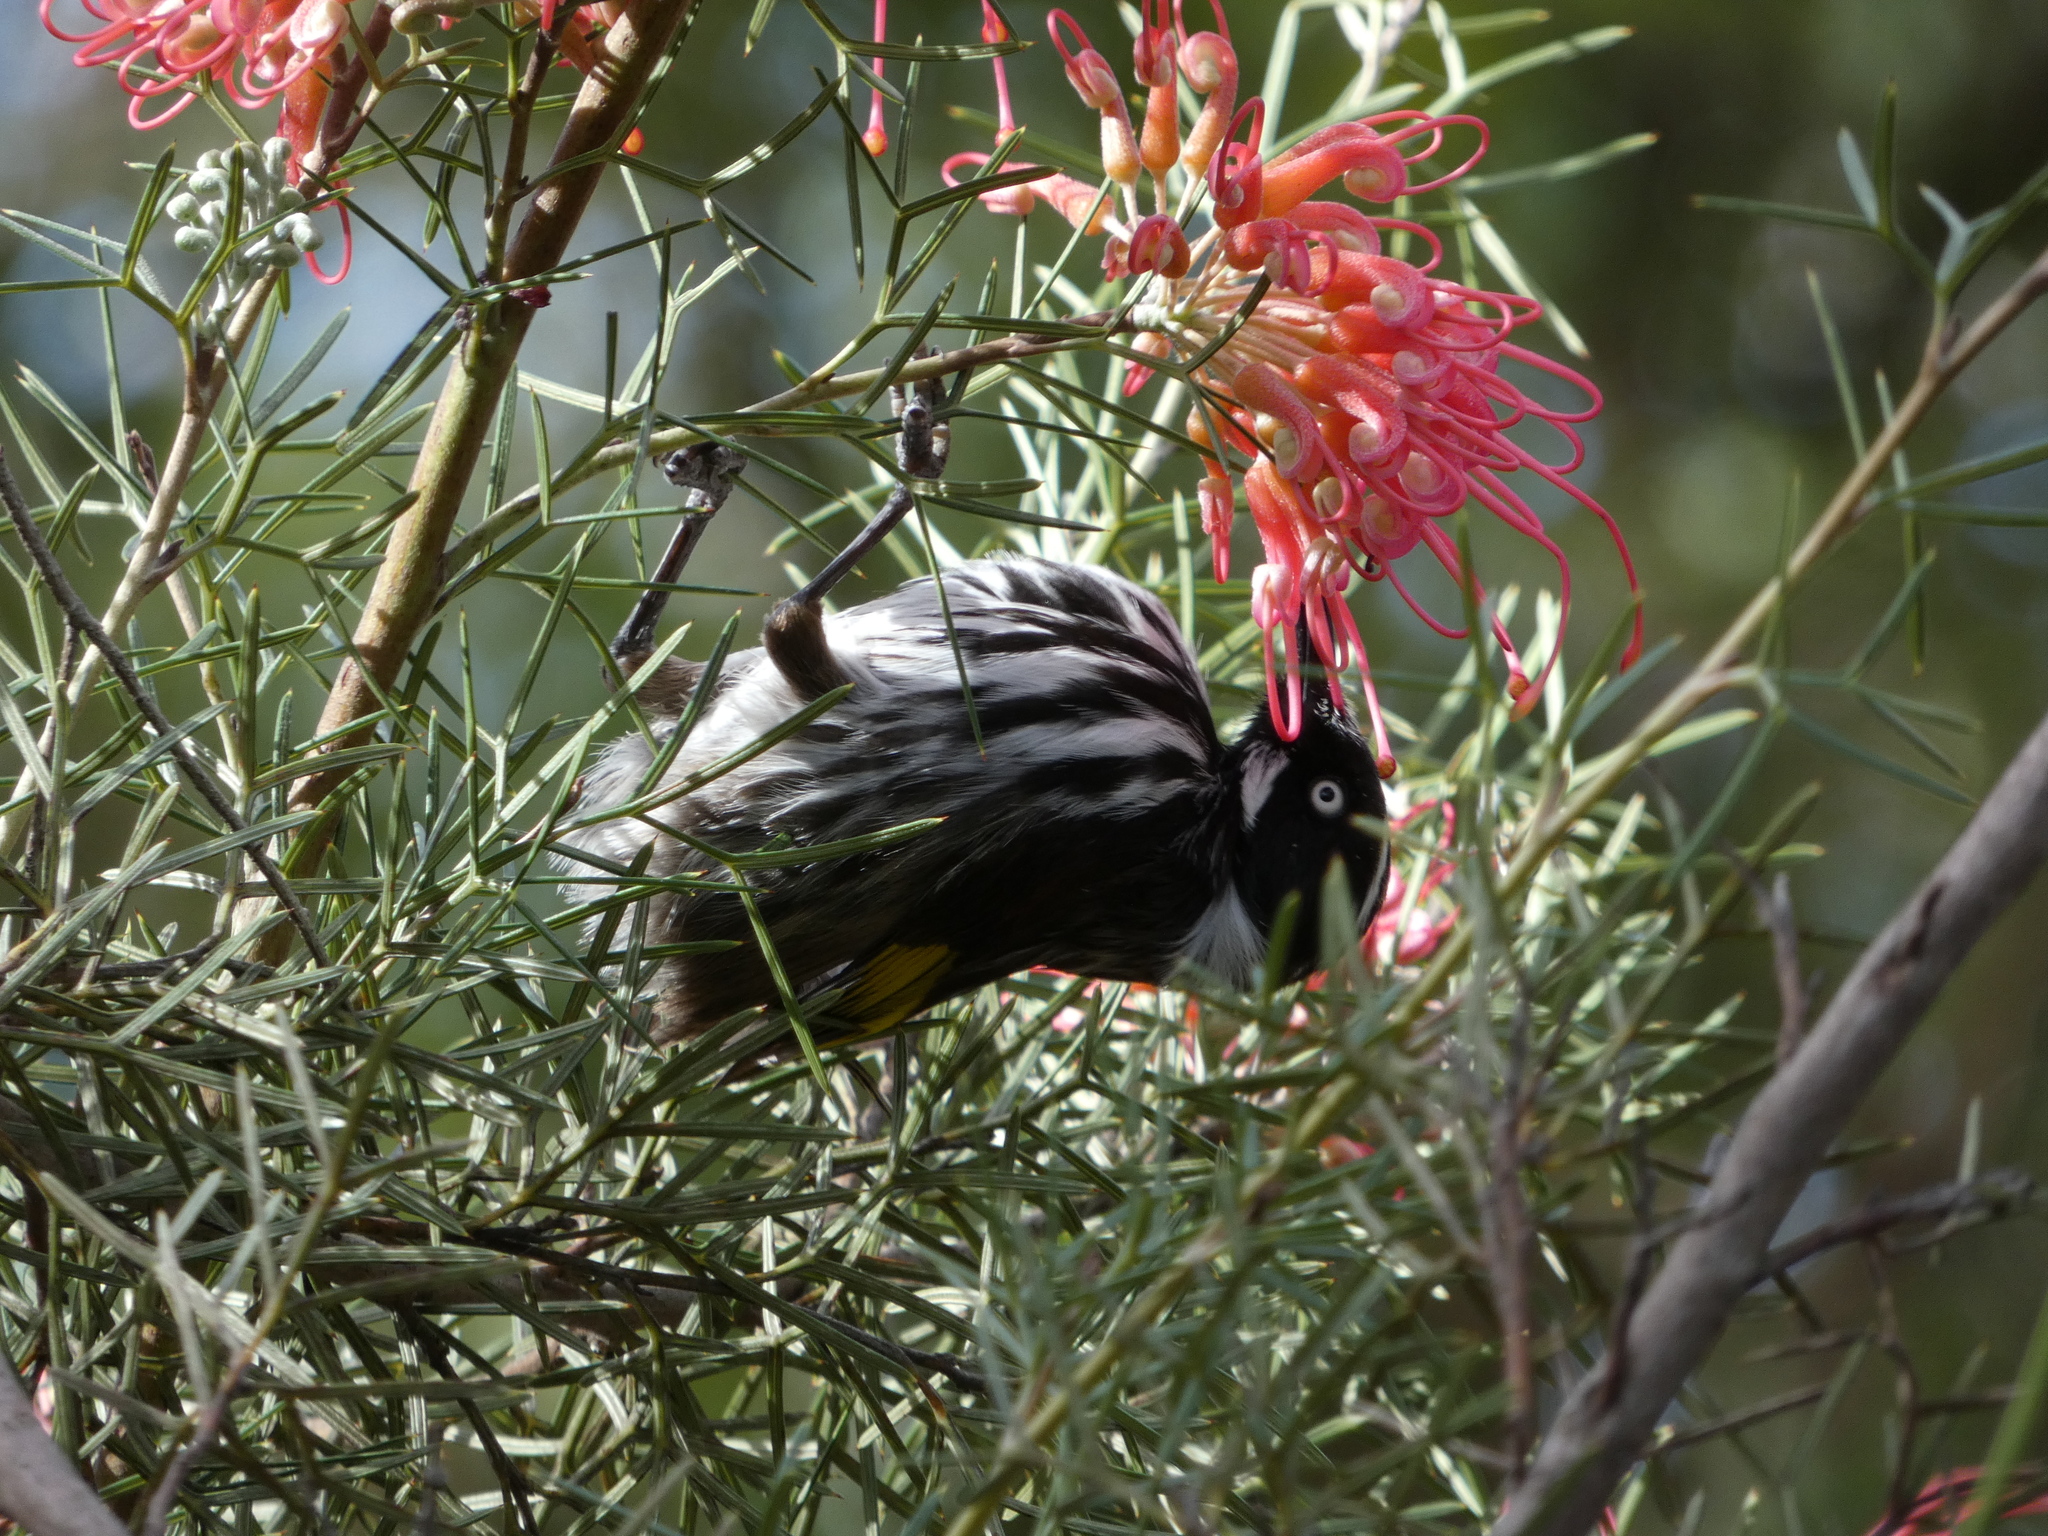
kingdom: Animalia
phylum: Chordata
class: Aves
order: Passeriformes
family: Meliphagidae
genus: Phylidonyris
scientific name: Phylidonyris novaehollandiae
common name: New holland honeyeater
